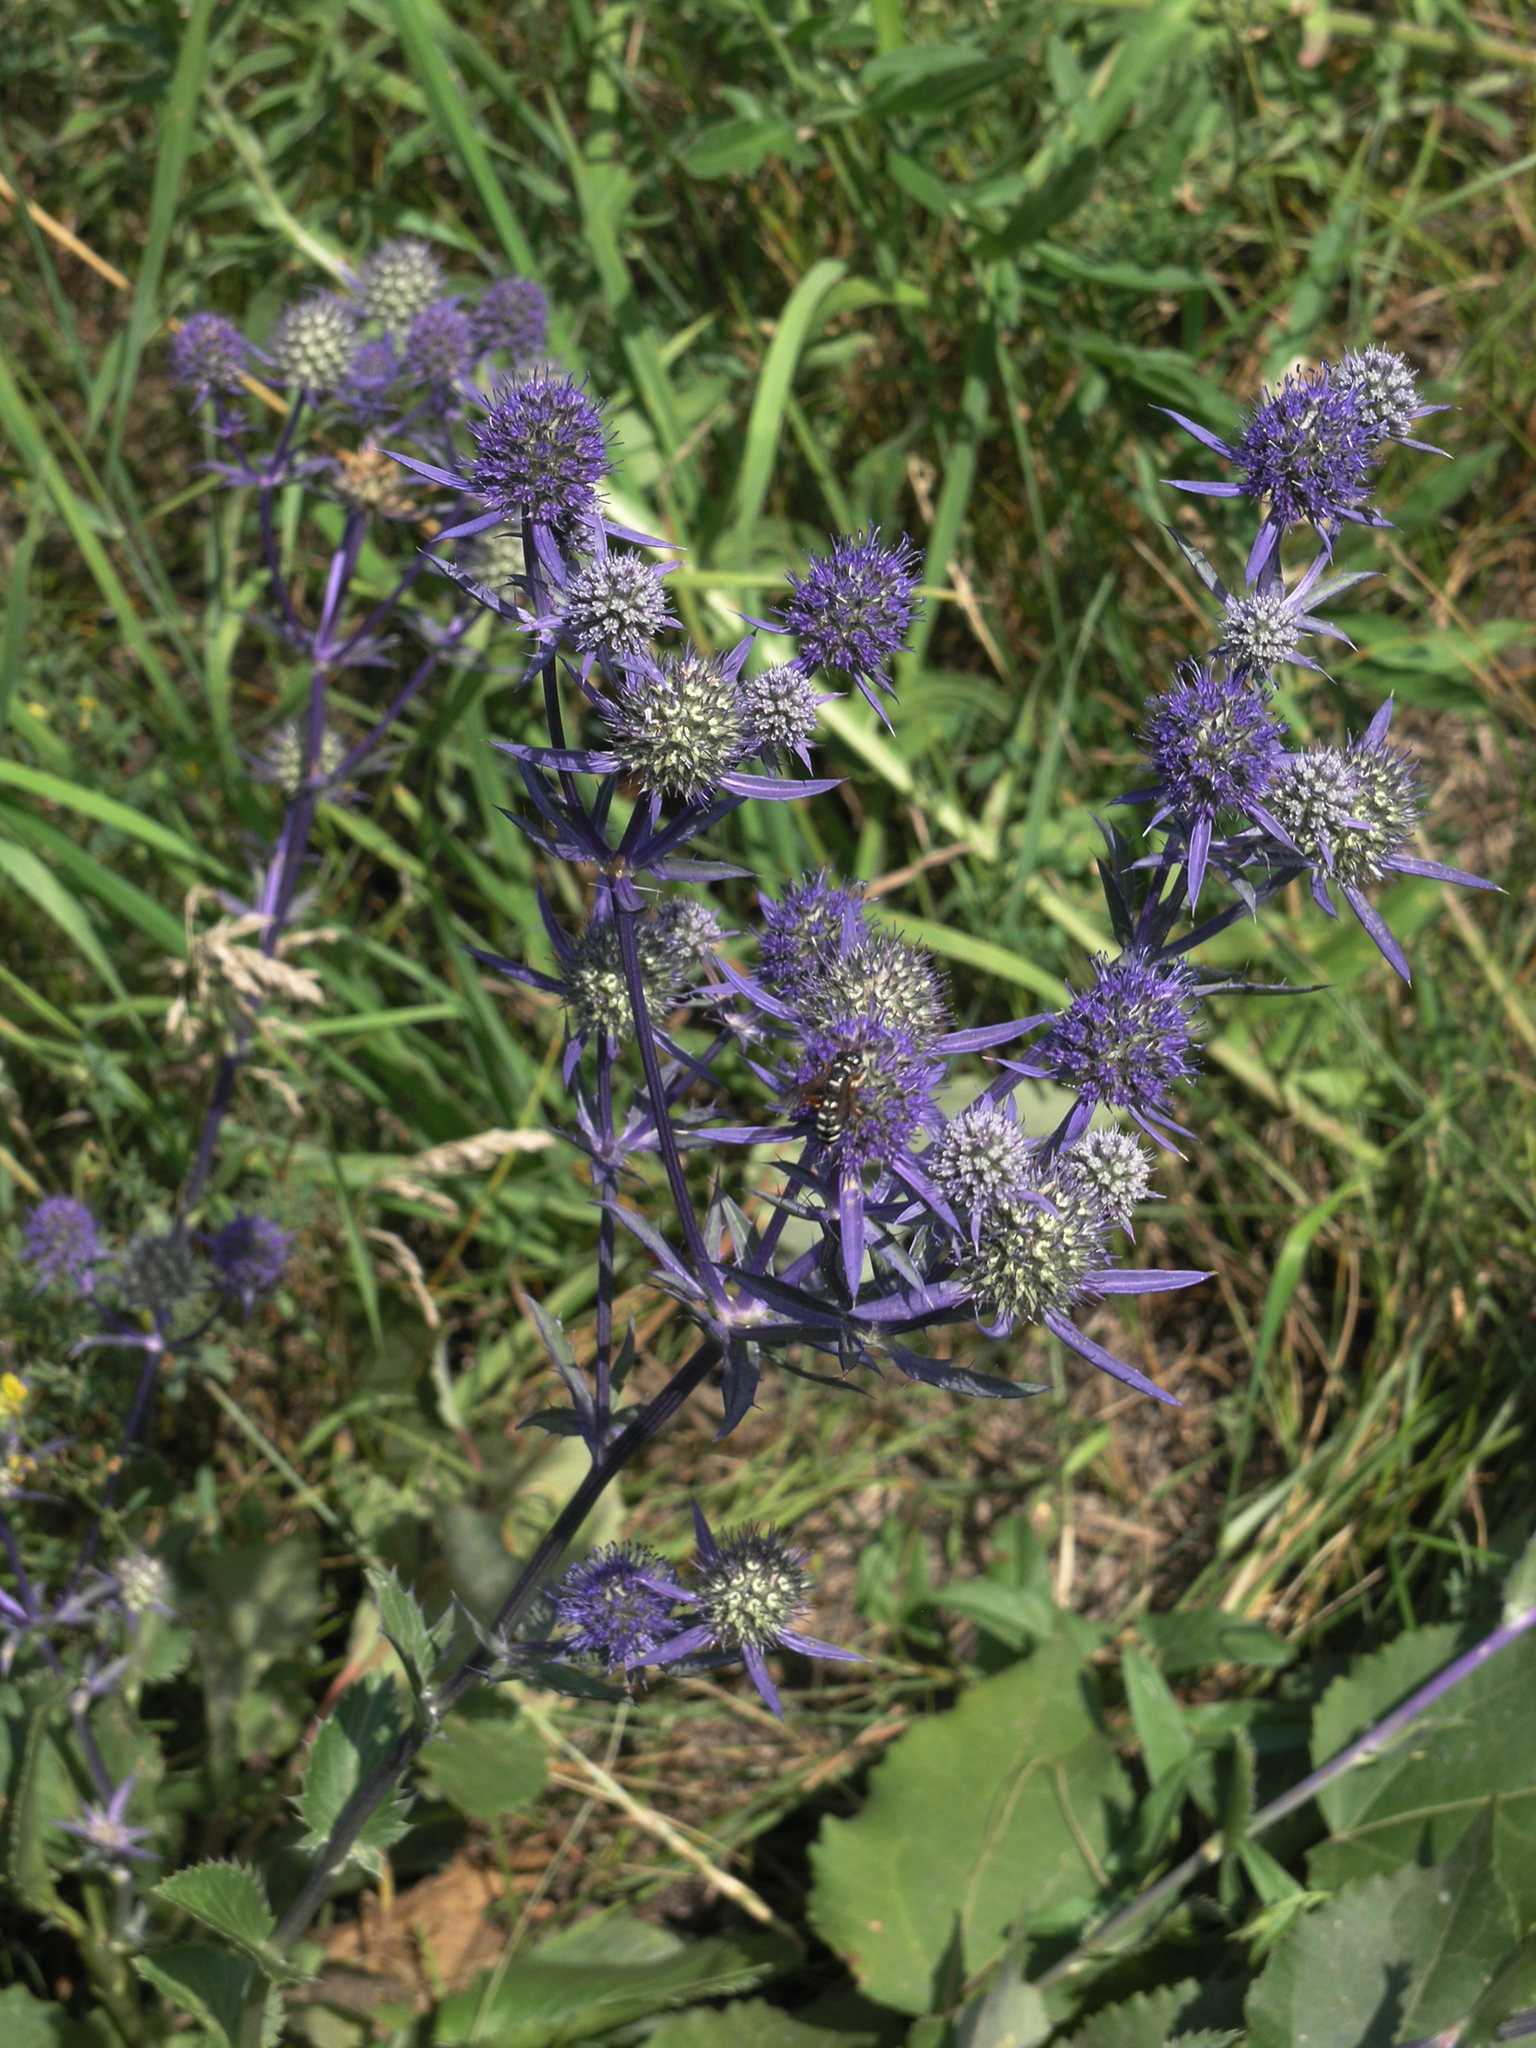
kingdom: Plantae
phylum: Tracheophyta
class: Magnoliopsida
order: Apiales
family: Apiaceae
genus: Eryngium
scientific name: Eryngium planum
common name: Blue eryngo
